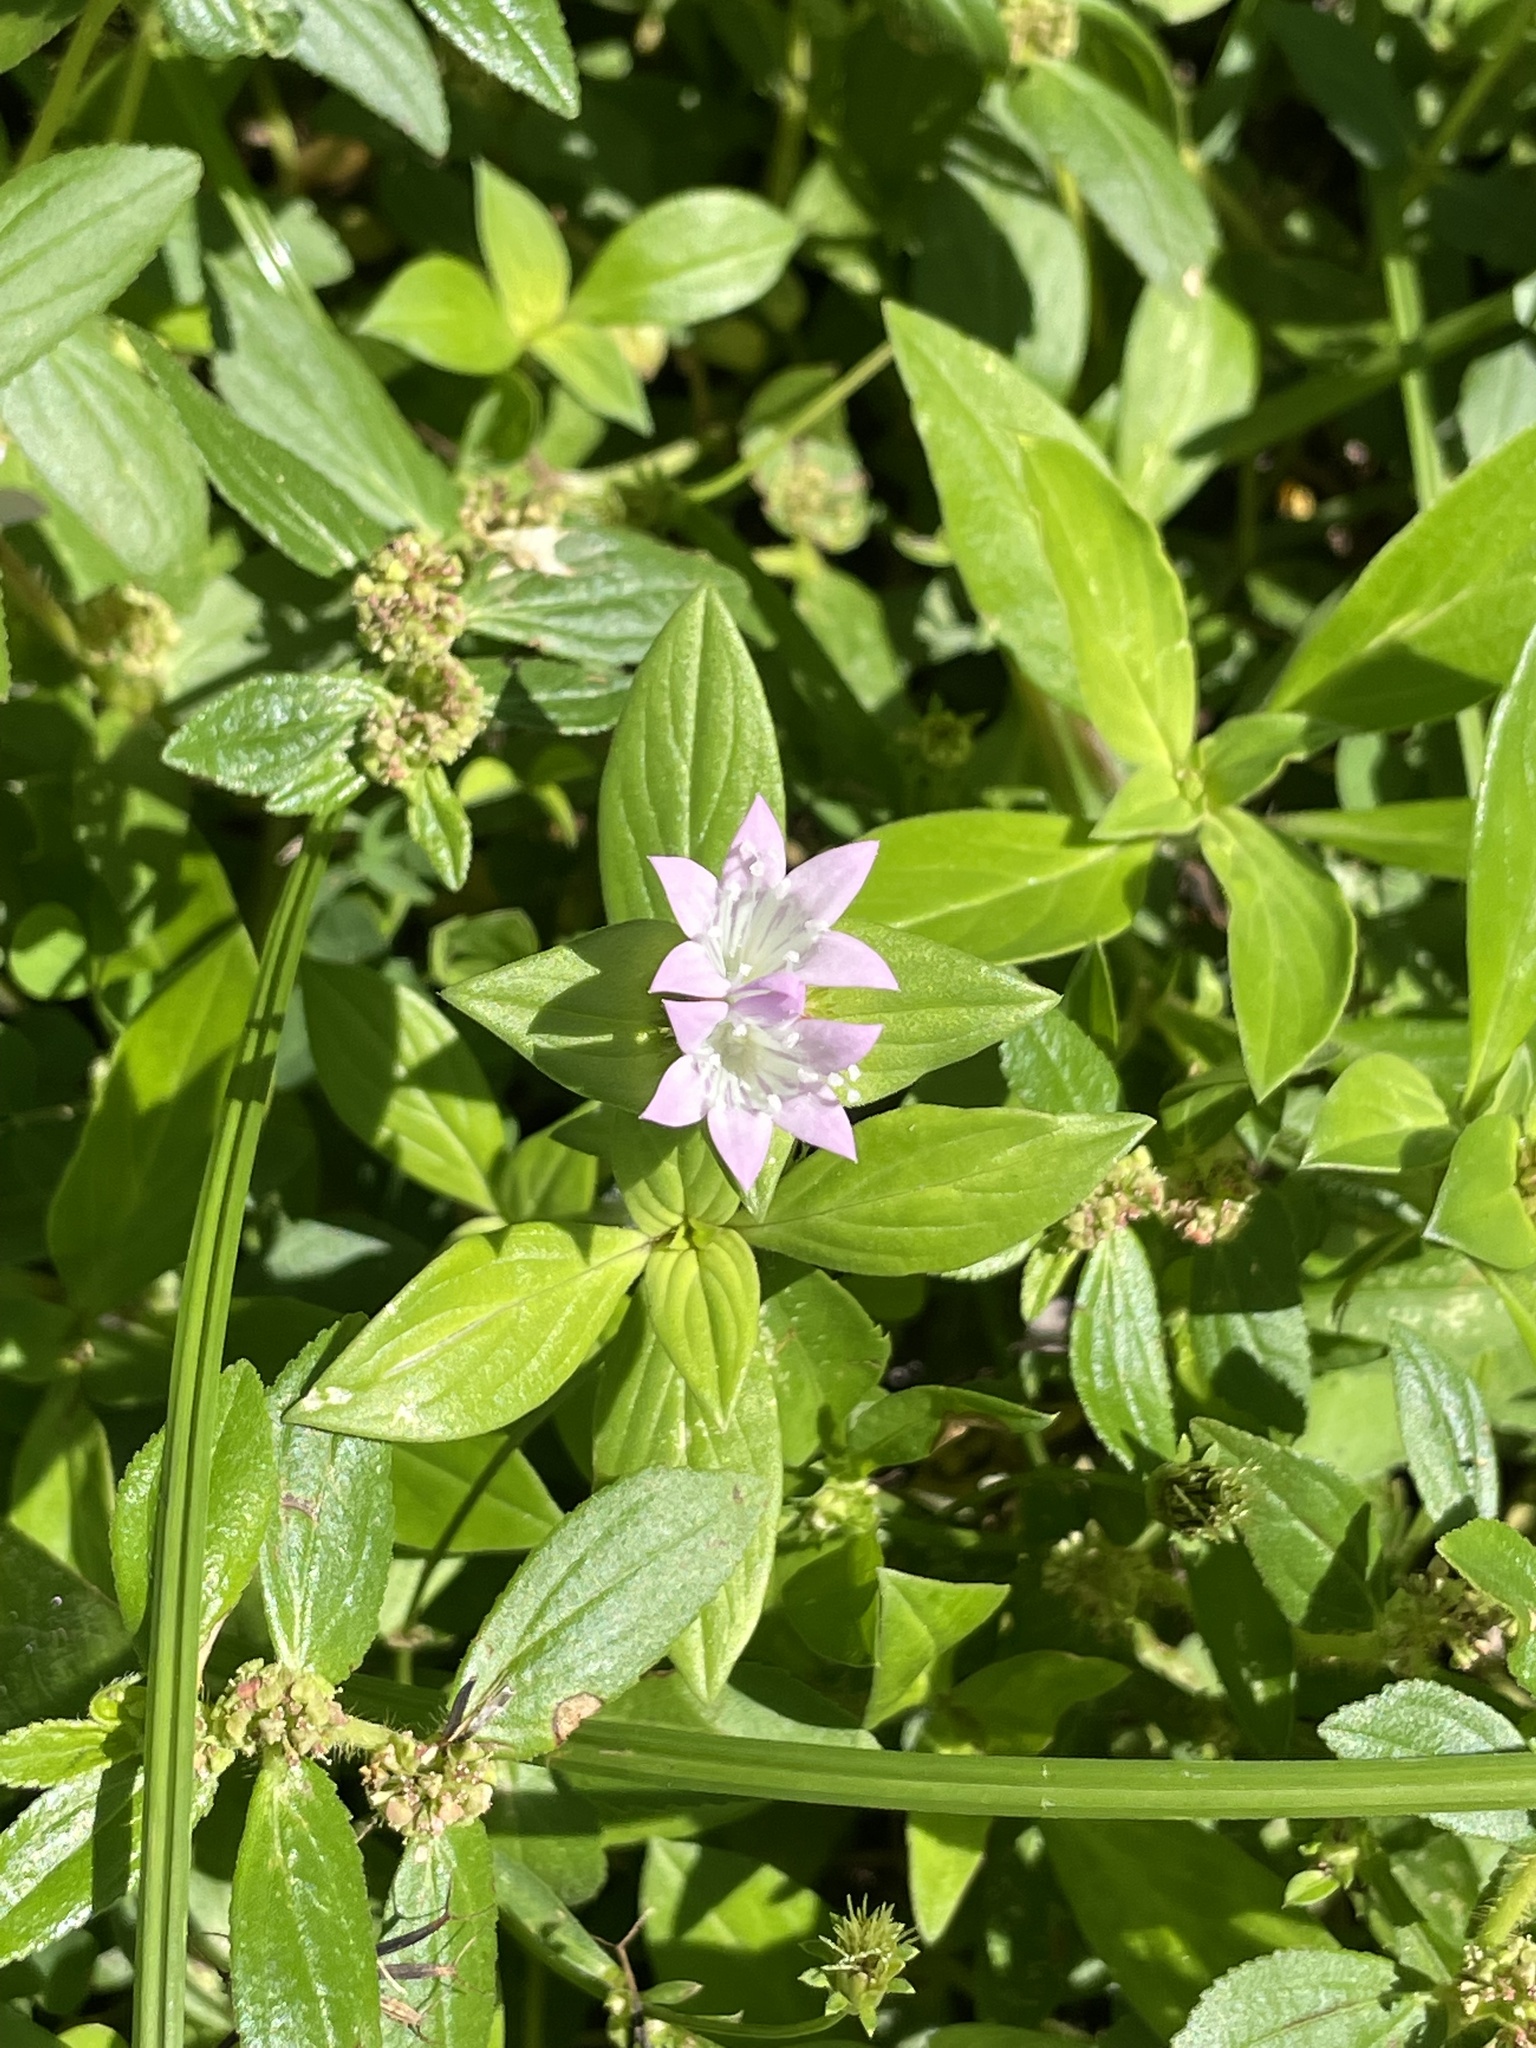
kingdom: Plantae
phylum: Tracheophyta
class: Magnoliopsida
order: Gentianales
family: Rubiaceae
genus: Richardia
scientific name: Richardia grandiflora
